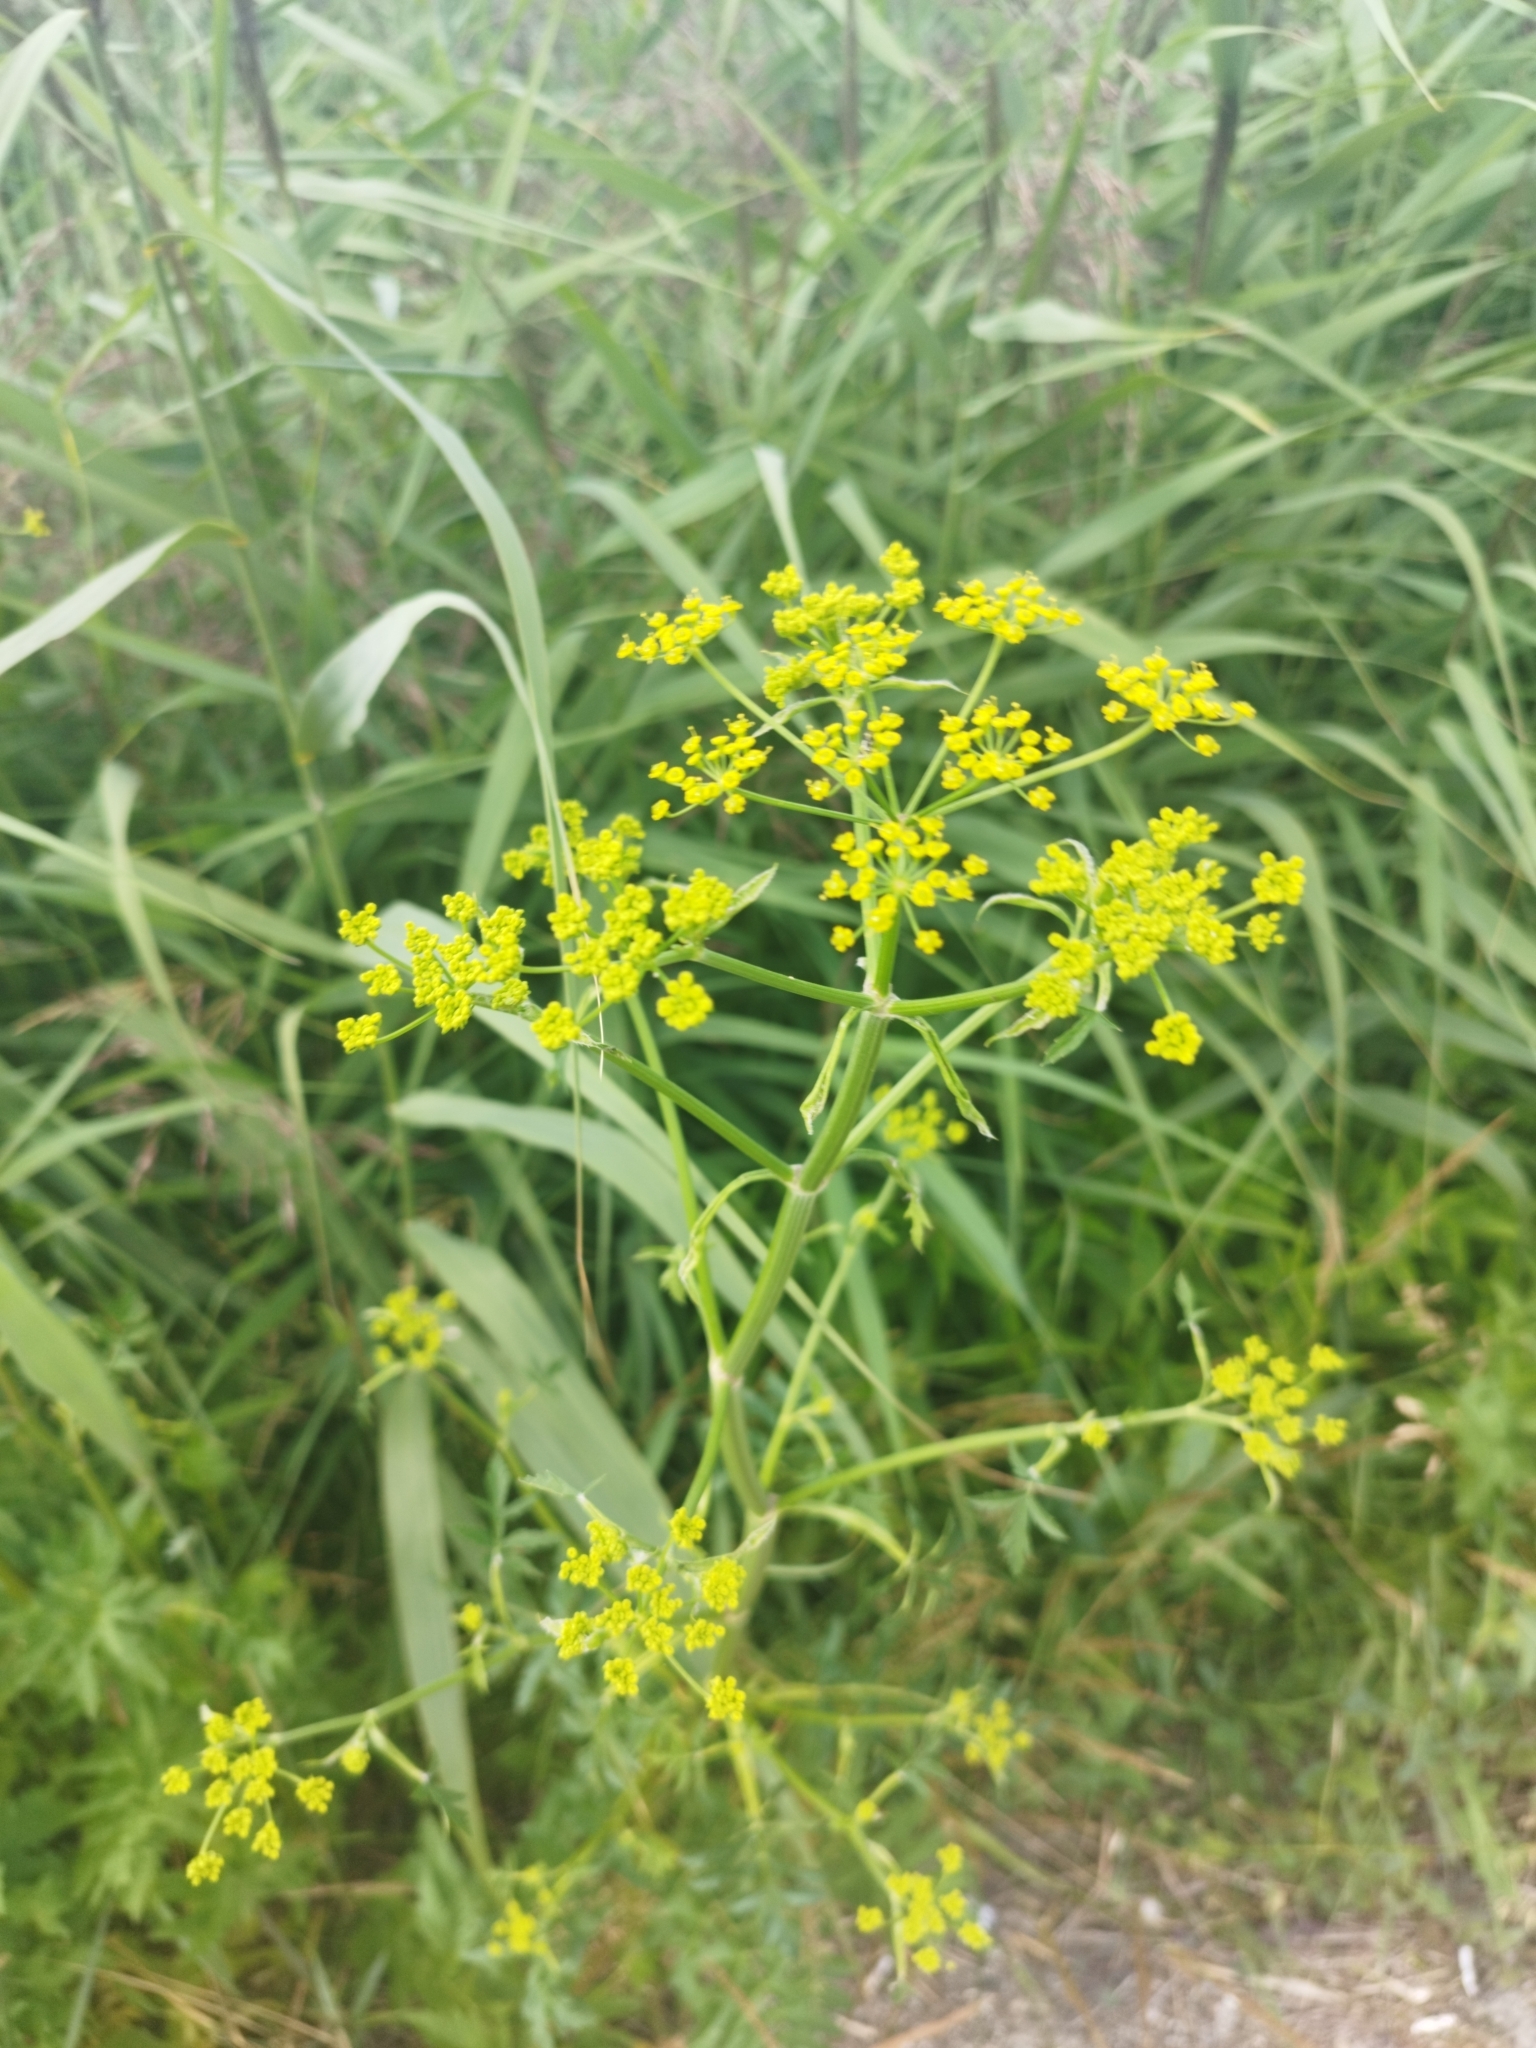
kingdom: Plantae
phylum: Tracheophyta
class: Magnoliopsida
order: Apiales
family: Apiaceae
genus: Pastinaca
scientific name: Pastinaca sativa
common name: Wild parsnip
